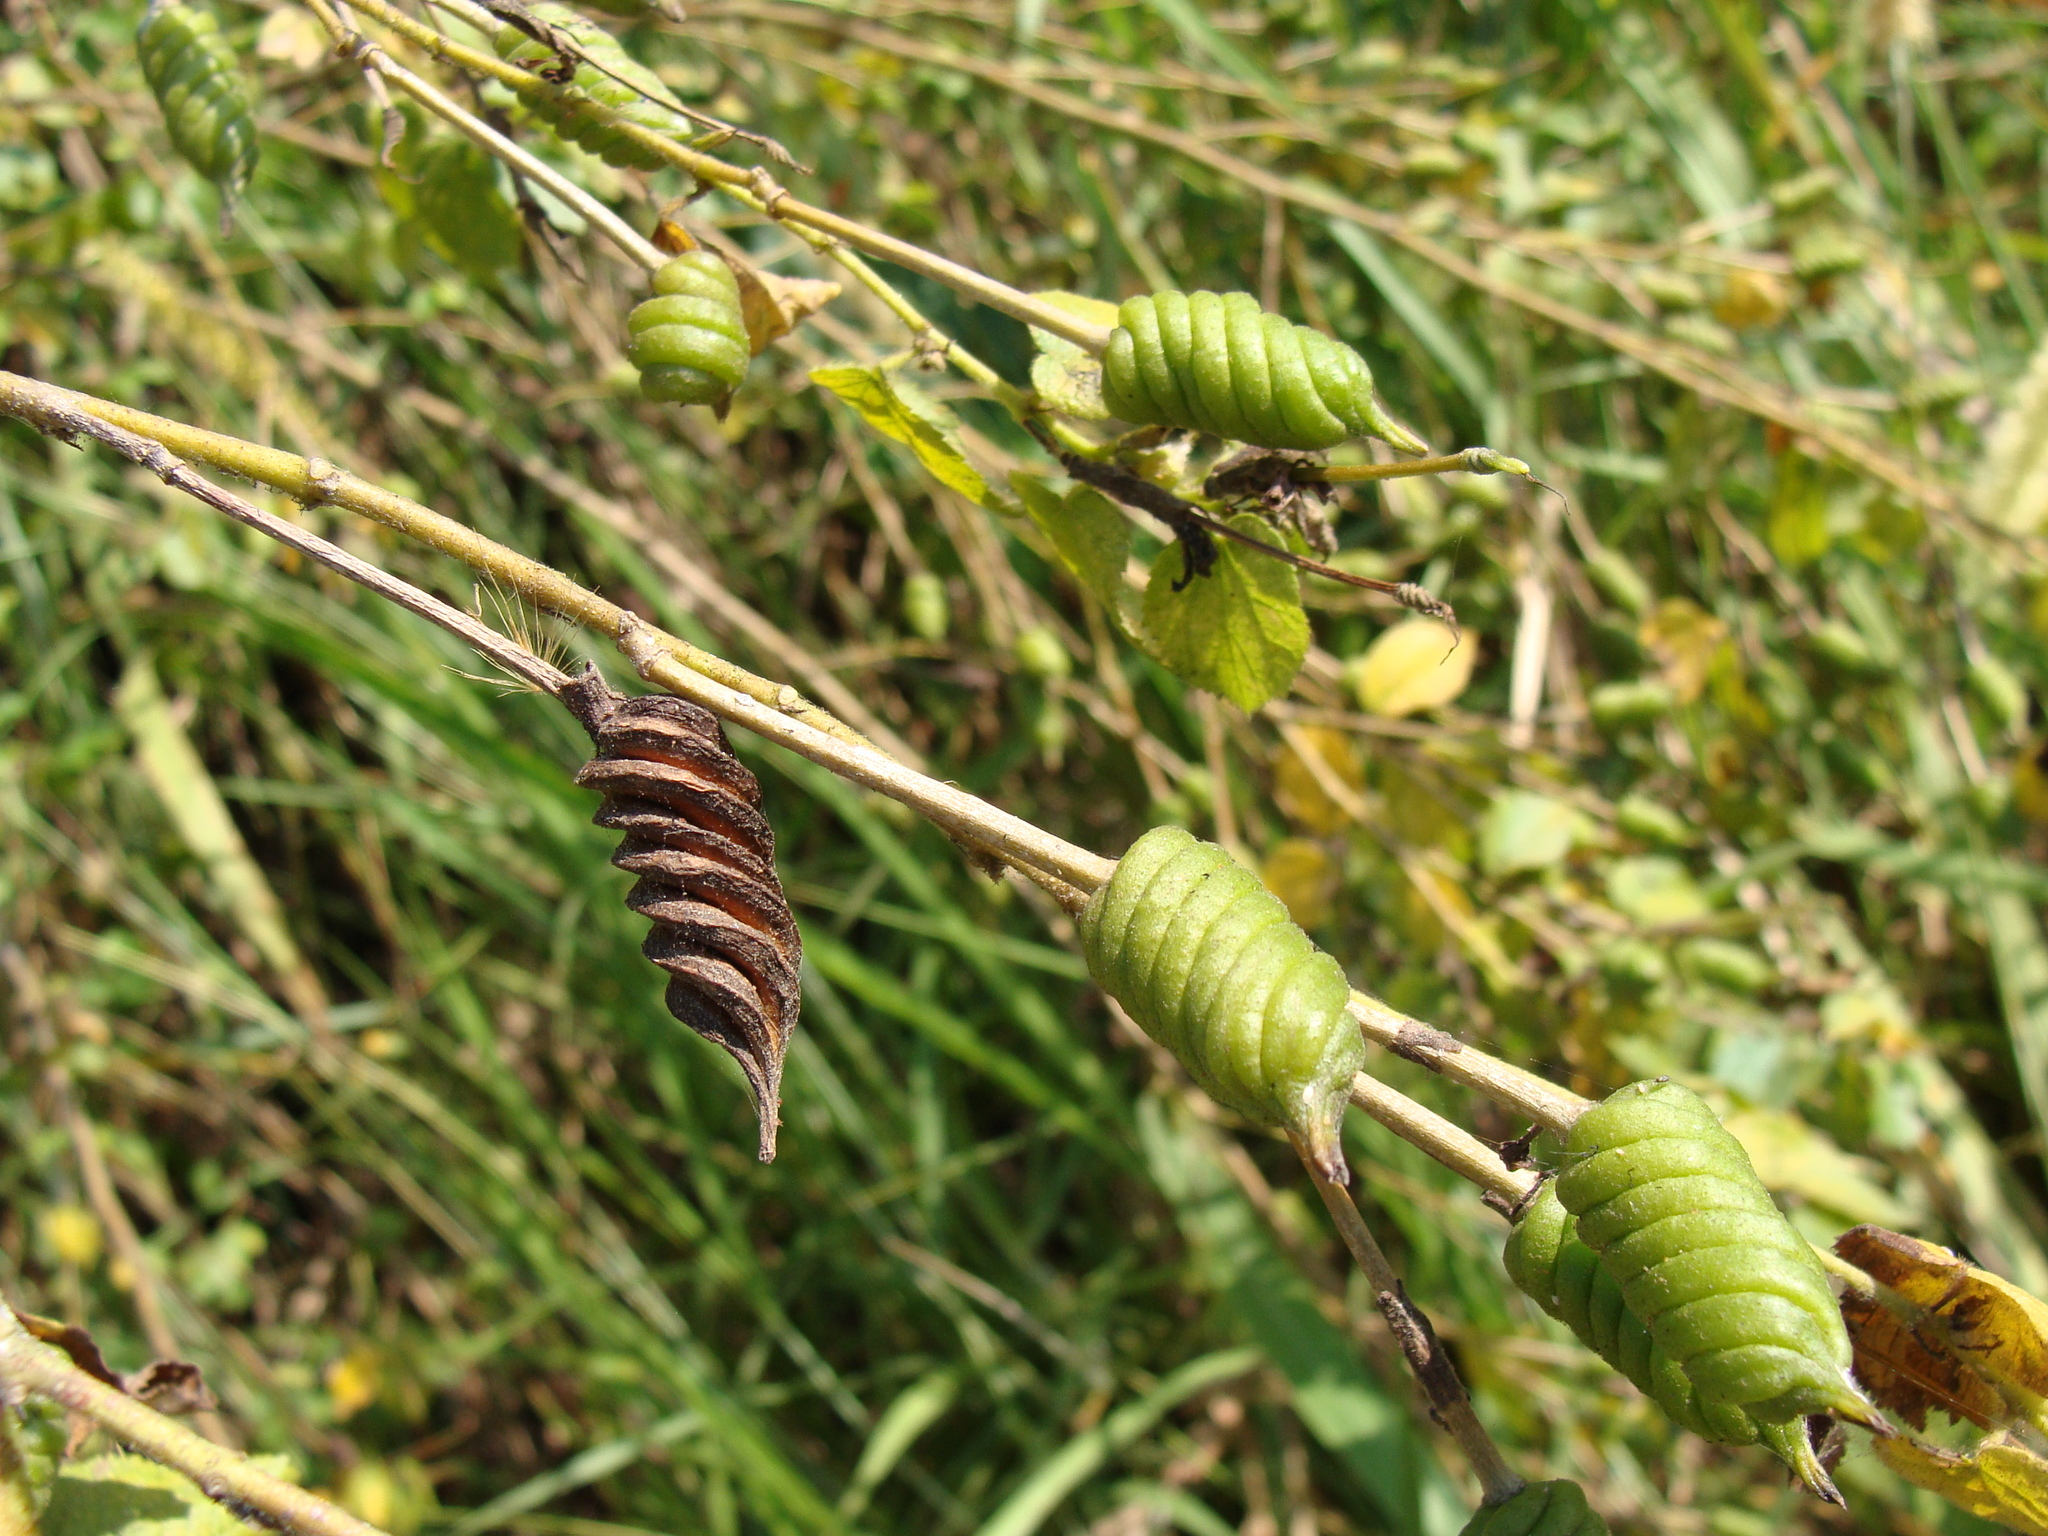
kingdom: Plantae
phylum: Tracheophyta
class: Magnoliopsida
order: Malvales
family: Malvaceae
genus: Helicteres
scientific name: Helicteres guazumifolia
